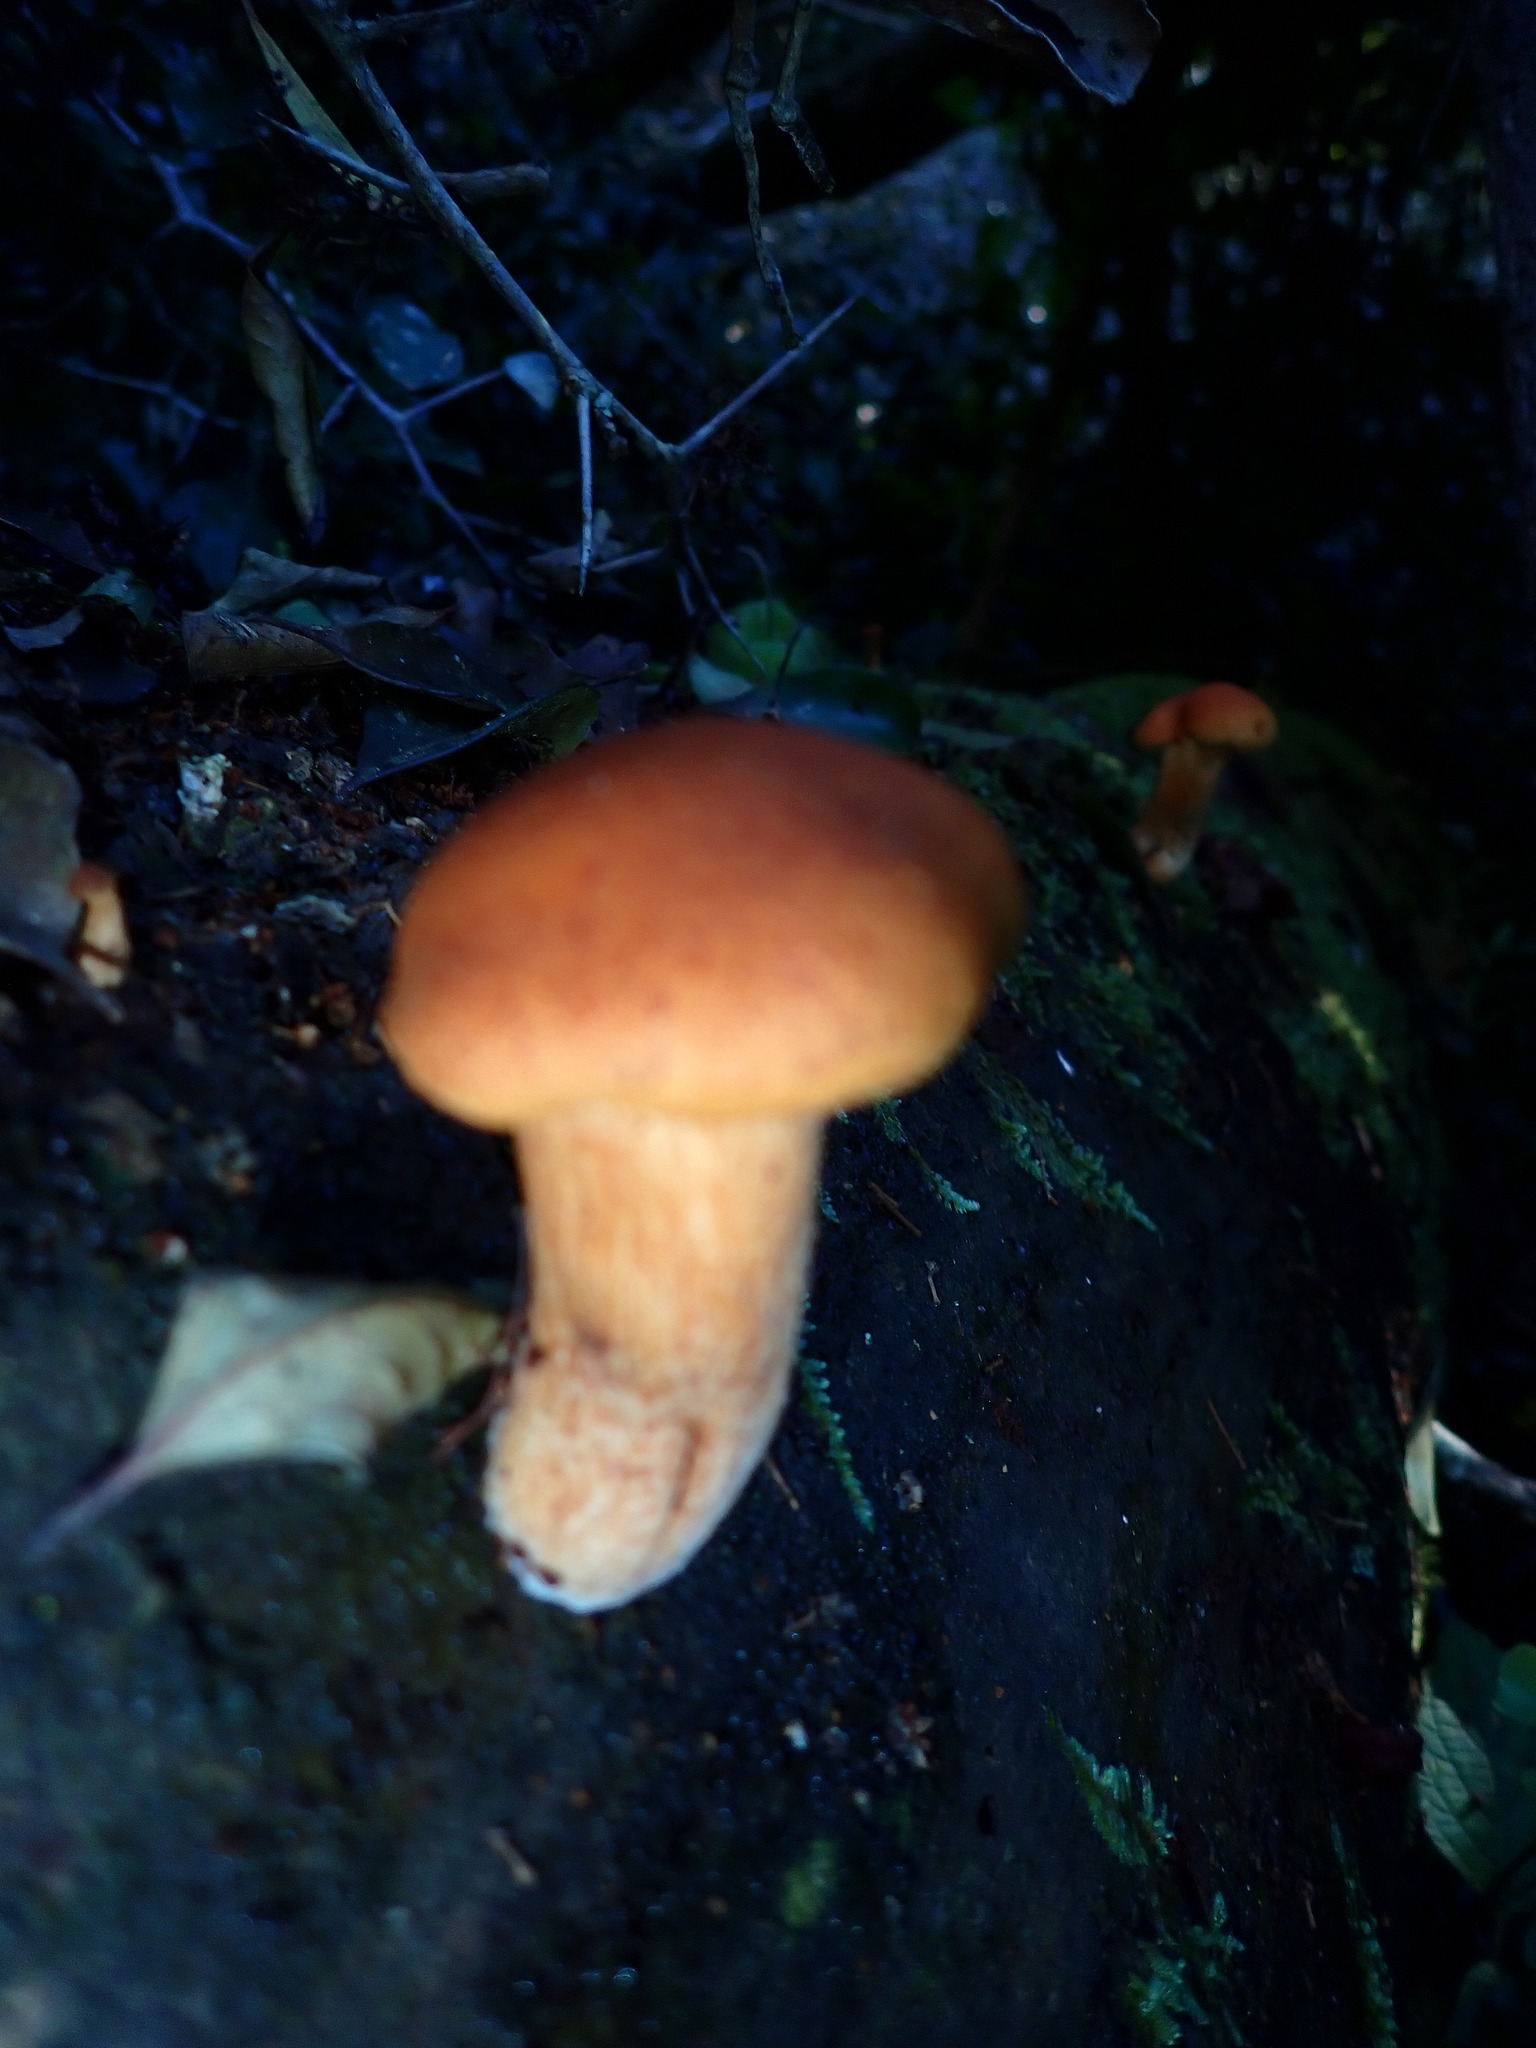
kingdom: Fungi
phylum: Basidiomycota
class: Agaricomycetes
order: Agaricales
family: Hymenogastraceae
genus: Gymnopilus
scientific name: Gymnopilus junonius
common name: Spectacular rustgill
